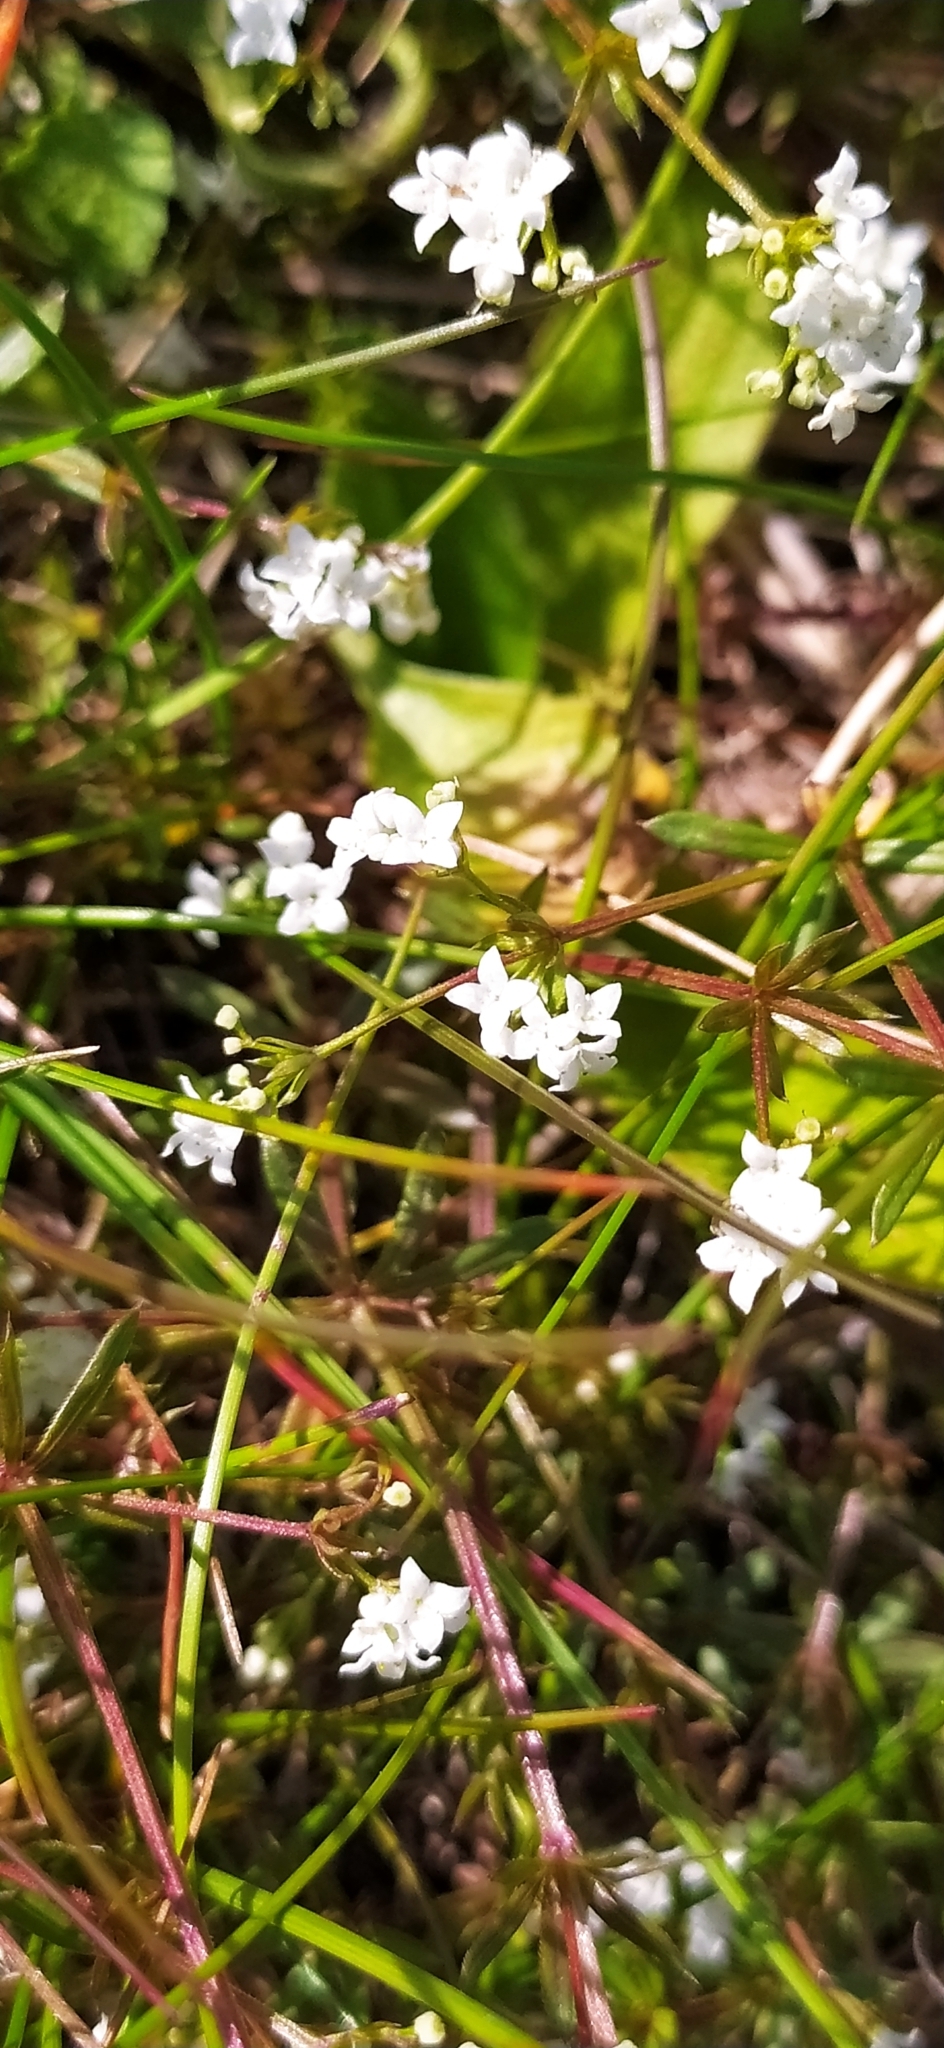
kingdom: Plantae
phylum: Tracheophyta
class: Magnoliopsida
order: Gentianales
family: Rubiaceae
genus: Galium
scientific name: Galium uliginosum
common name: Fen bedstraw
